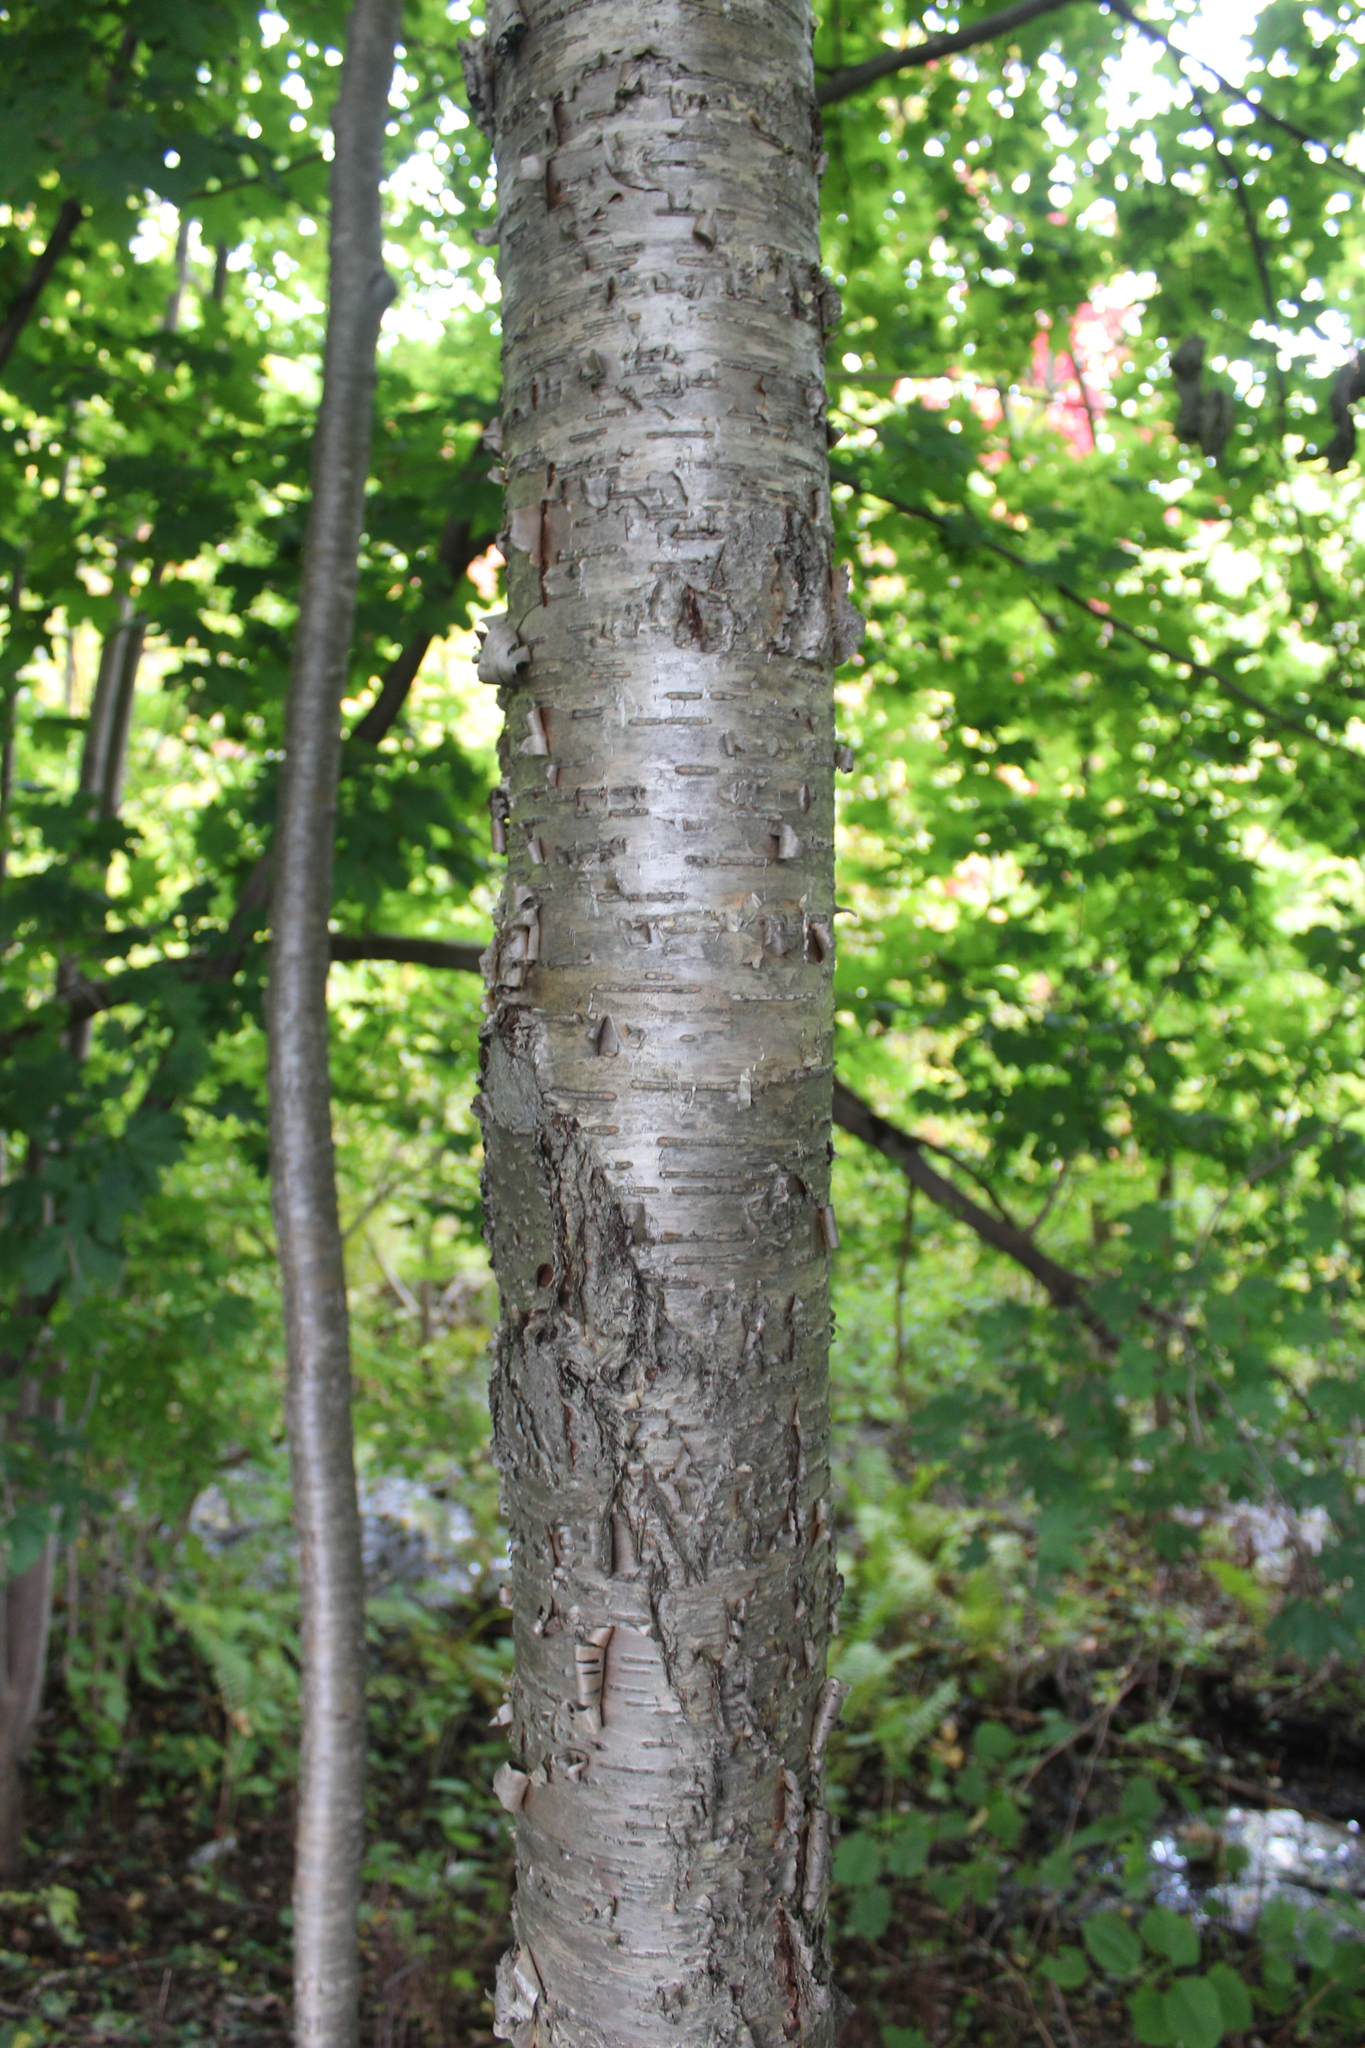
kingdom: Plantae
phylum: Tracheophyta
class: Magnoliopsida
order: Fagales
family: Betulaceae
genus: Betula
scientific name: Betula alleghaniensis
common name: Yellow birch
